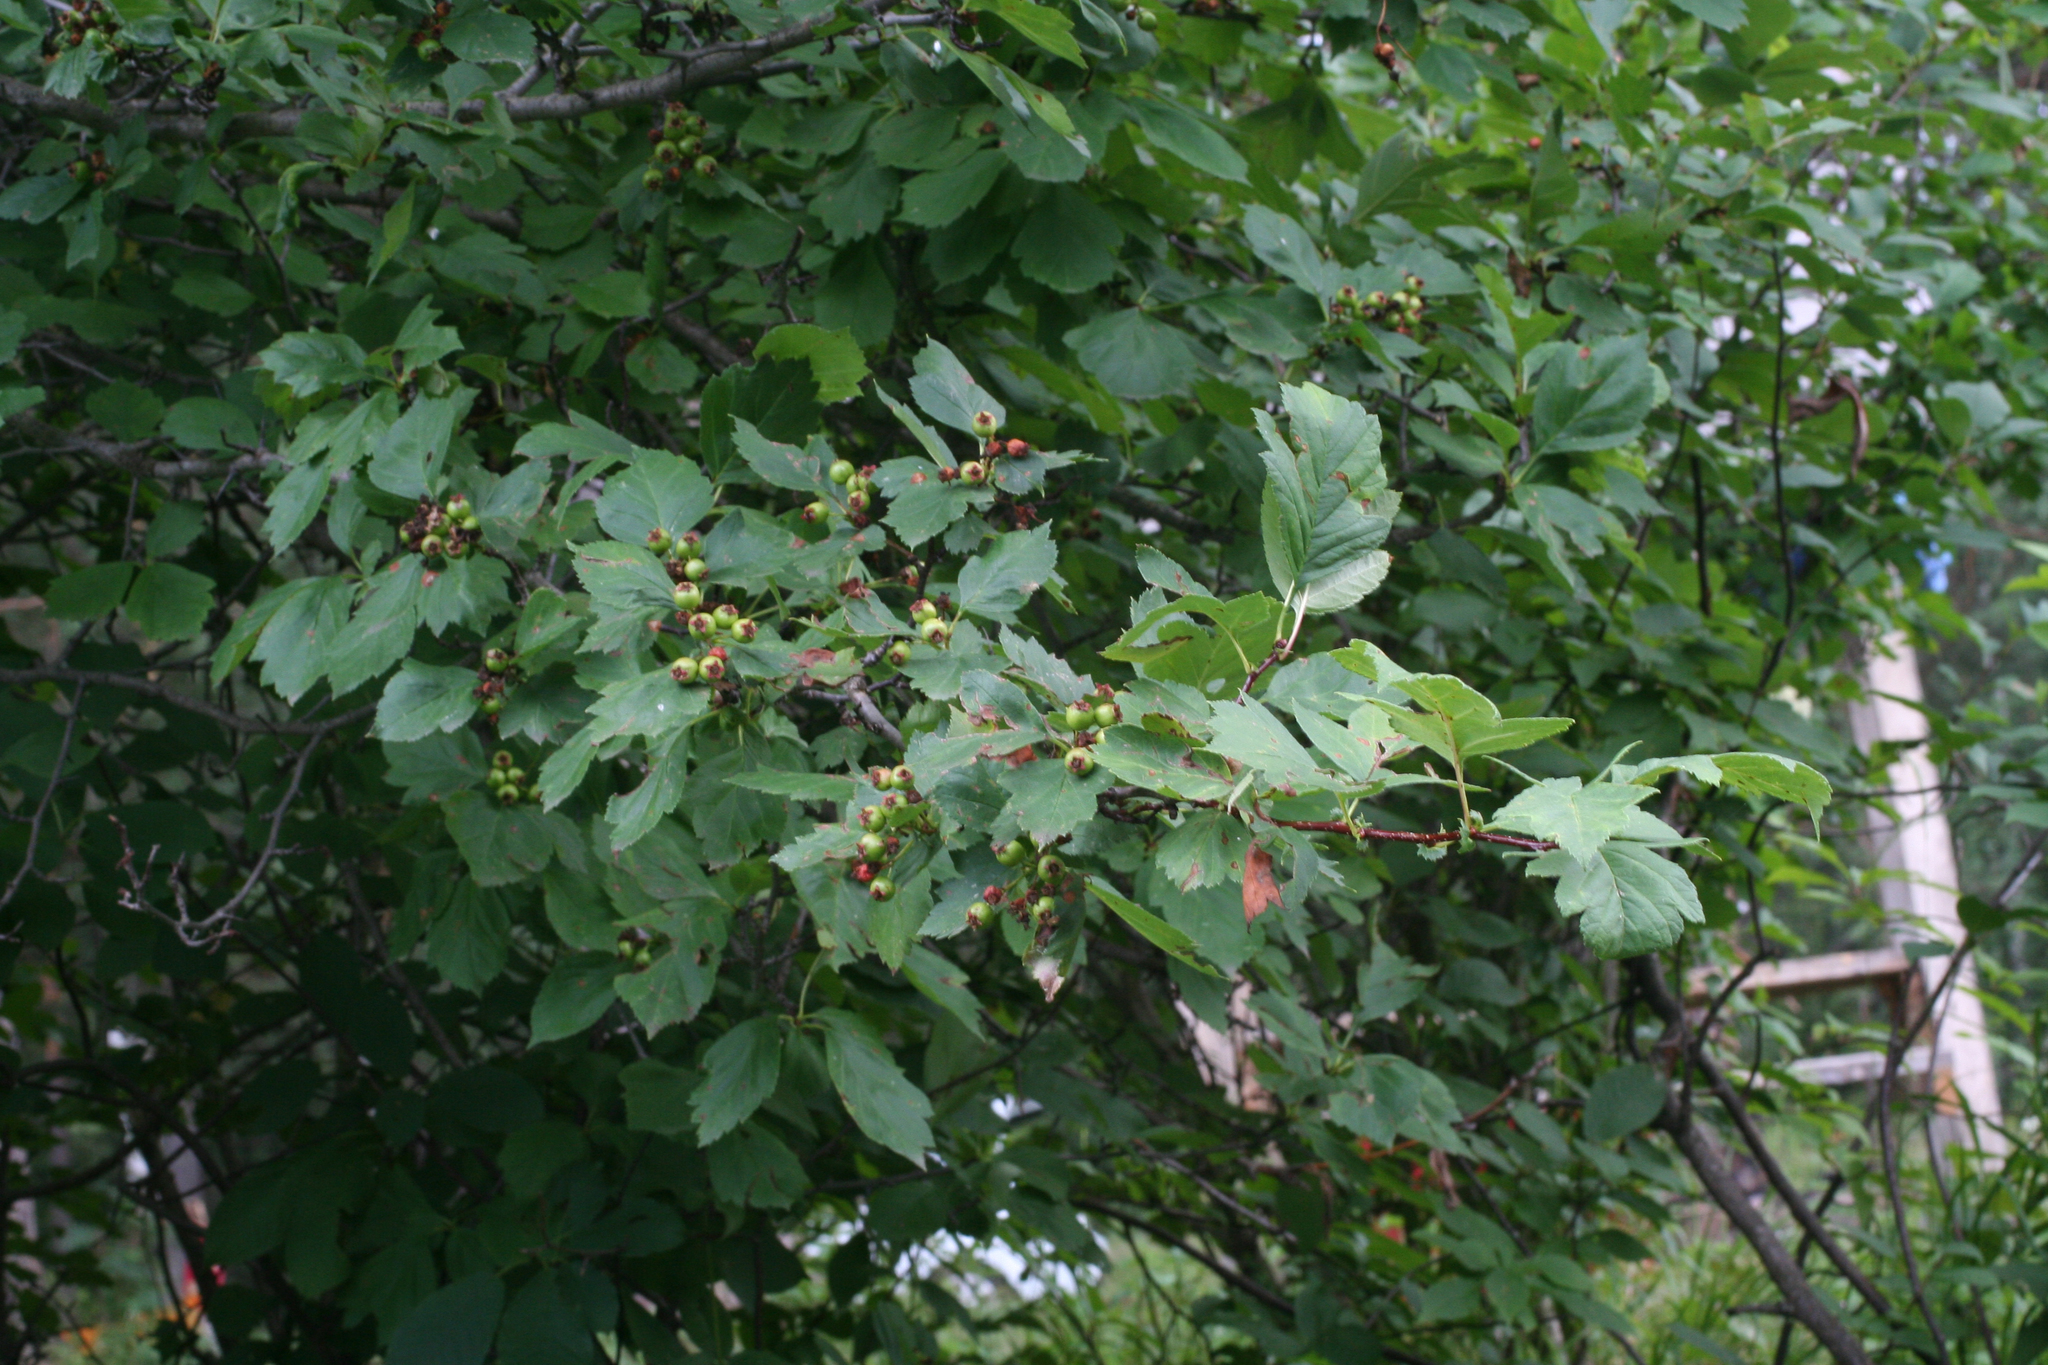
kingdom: Plantae
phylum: Tracheophyta
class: Magnoliopsida
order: Rosales
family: Rosaceae
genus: Crataegus
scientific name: Crataegus sanguinea
